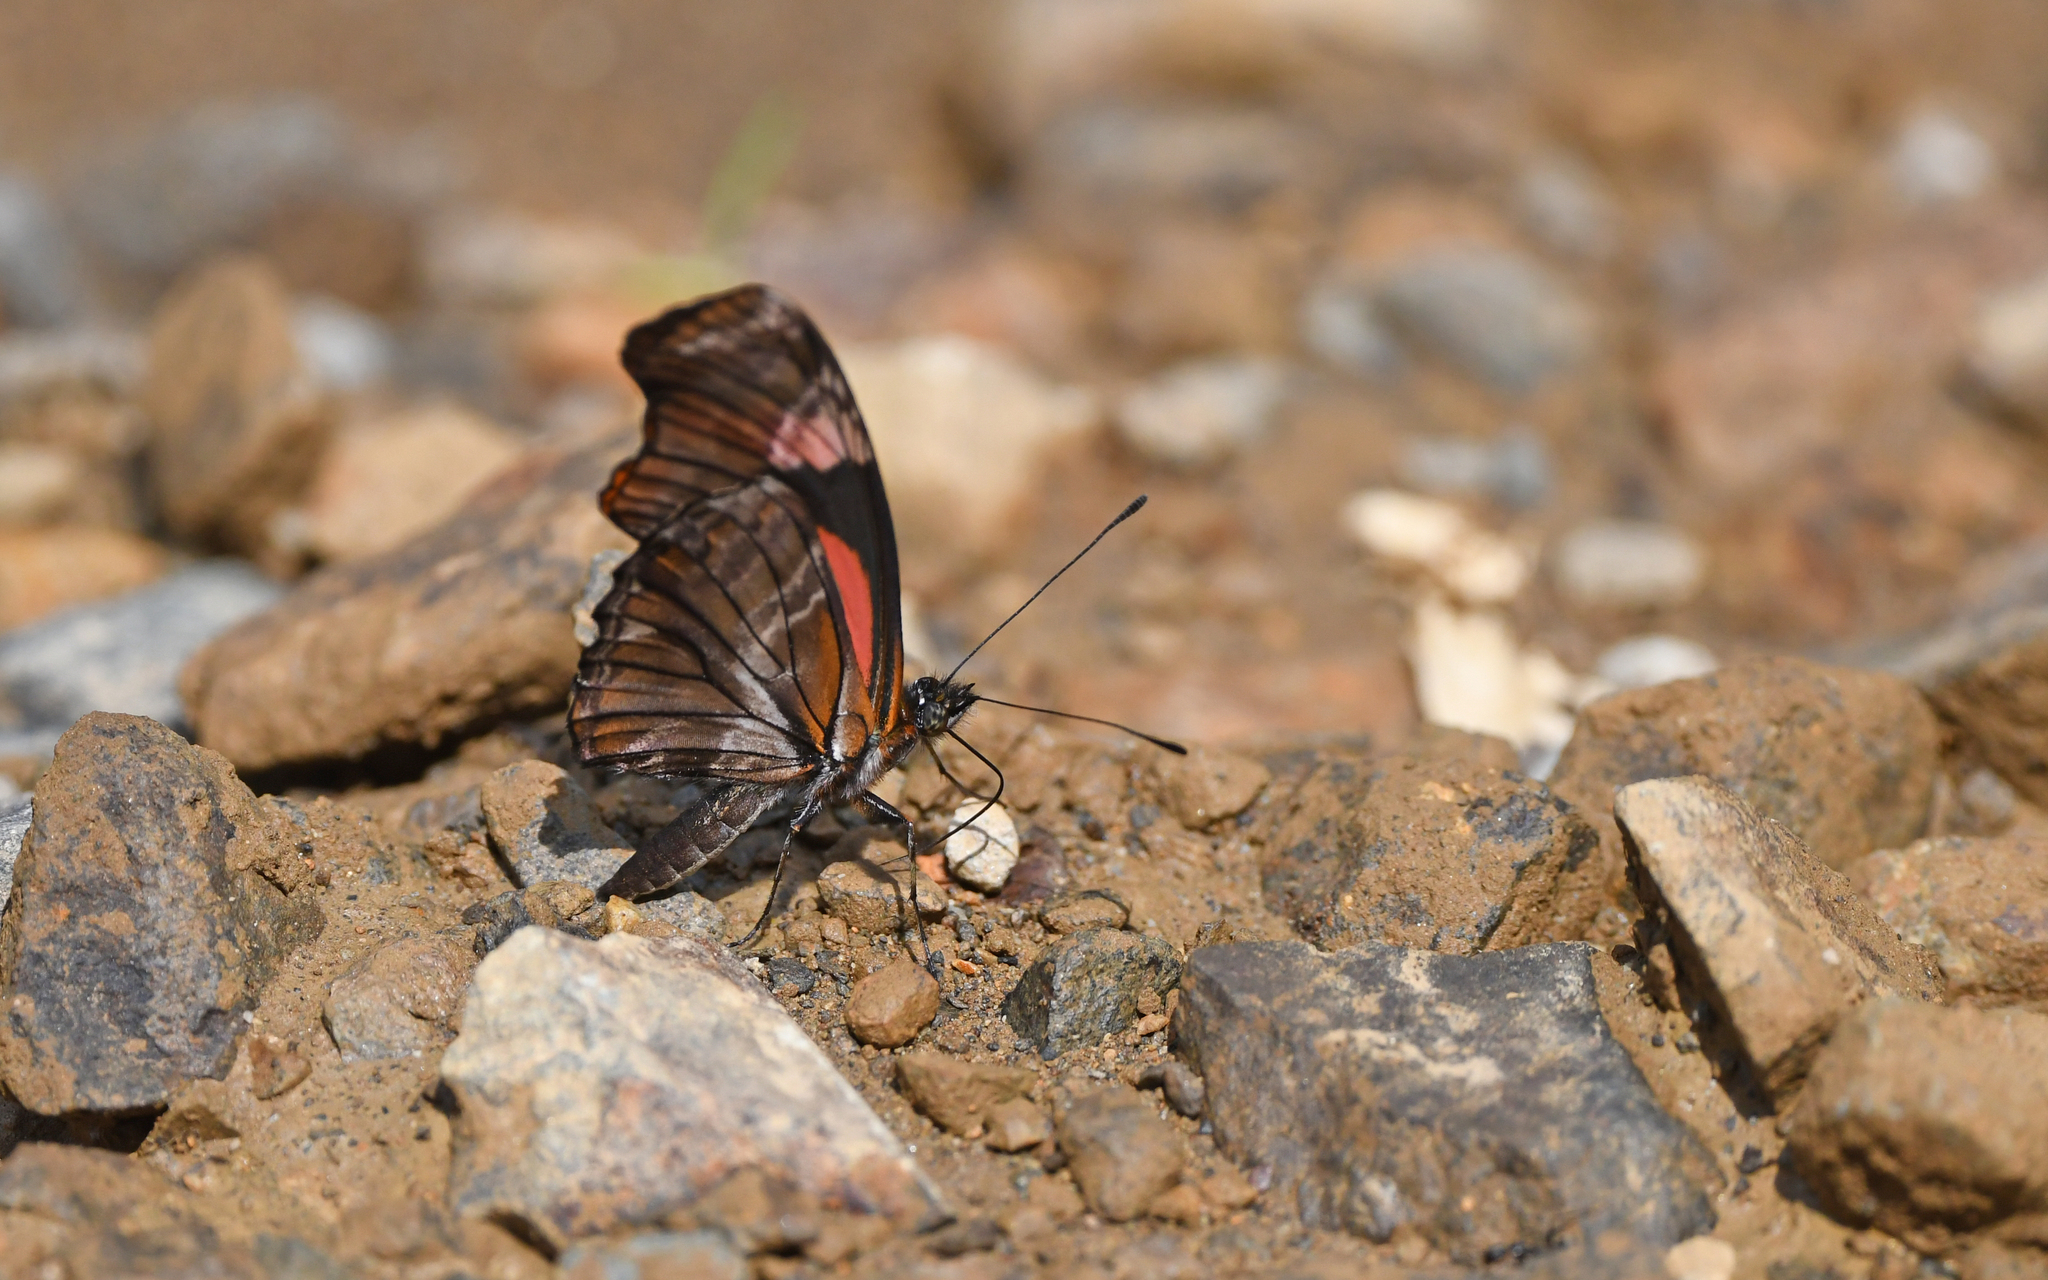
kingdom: Animalia
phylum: Arthropoda
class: Insecta
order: Lepidoptera
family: Nymphalidae
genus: Podotricha
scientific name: Podotricha telesiphe
